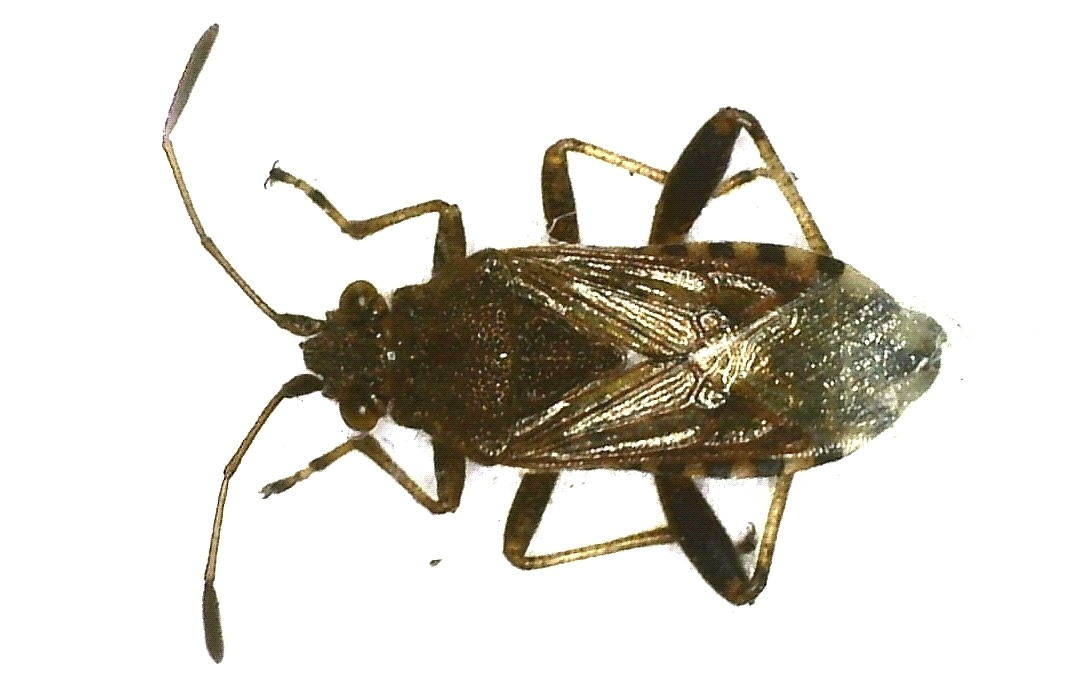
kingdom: Animalia
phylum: Arthropoda
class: Insecta
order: Hemiptera
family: Rhopalidae
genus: Stictopleurus
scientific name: Stictopleurus punctatonervosus
